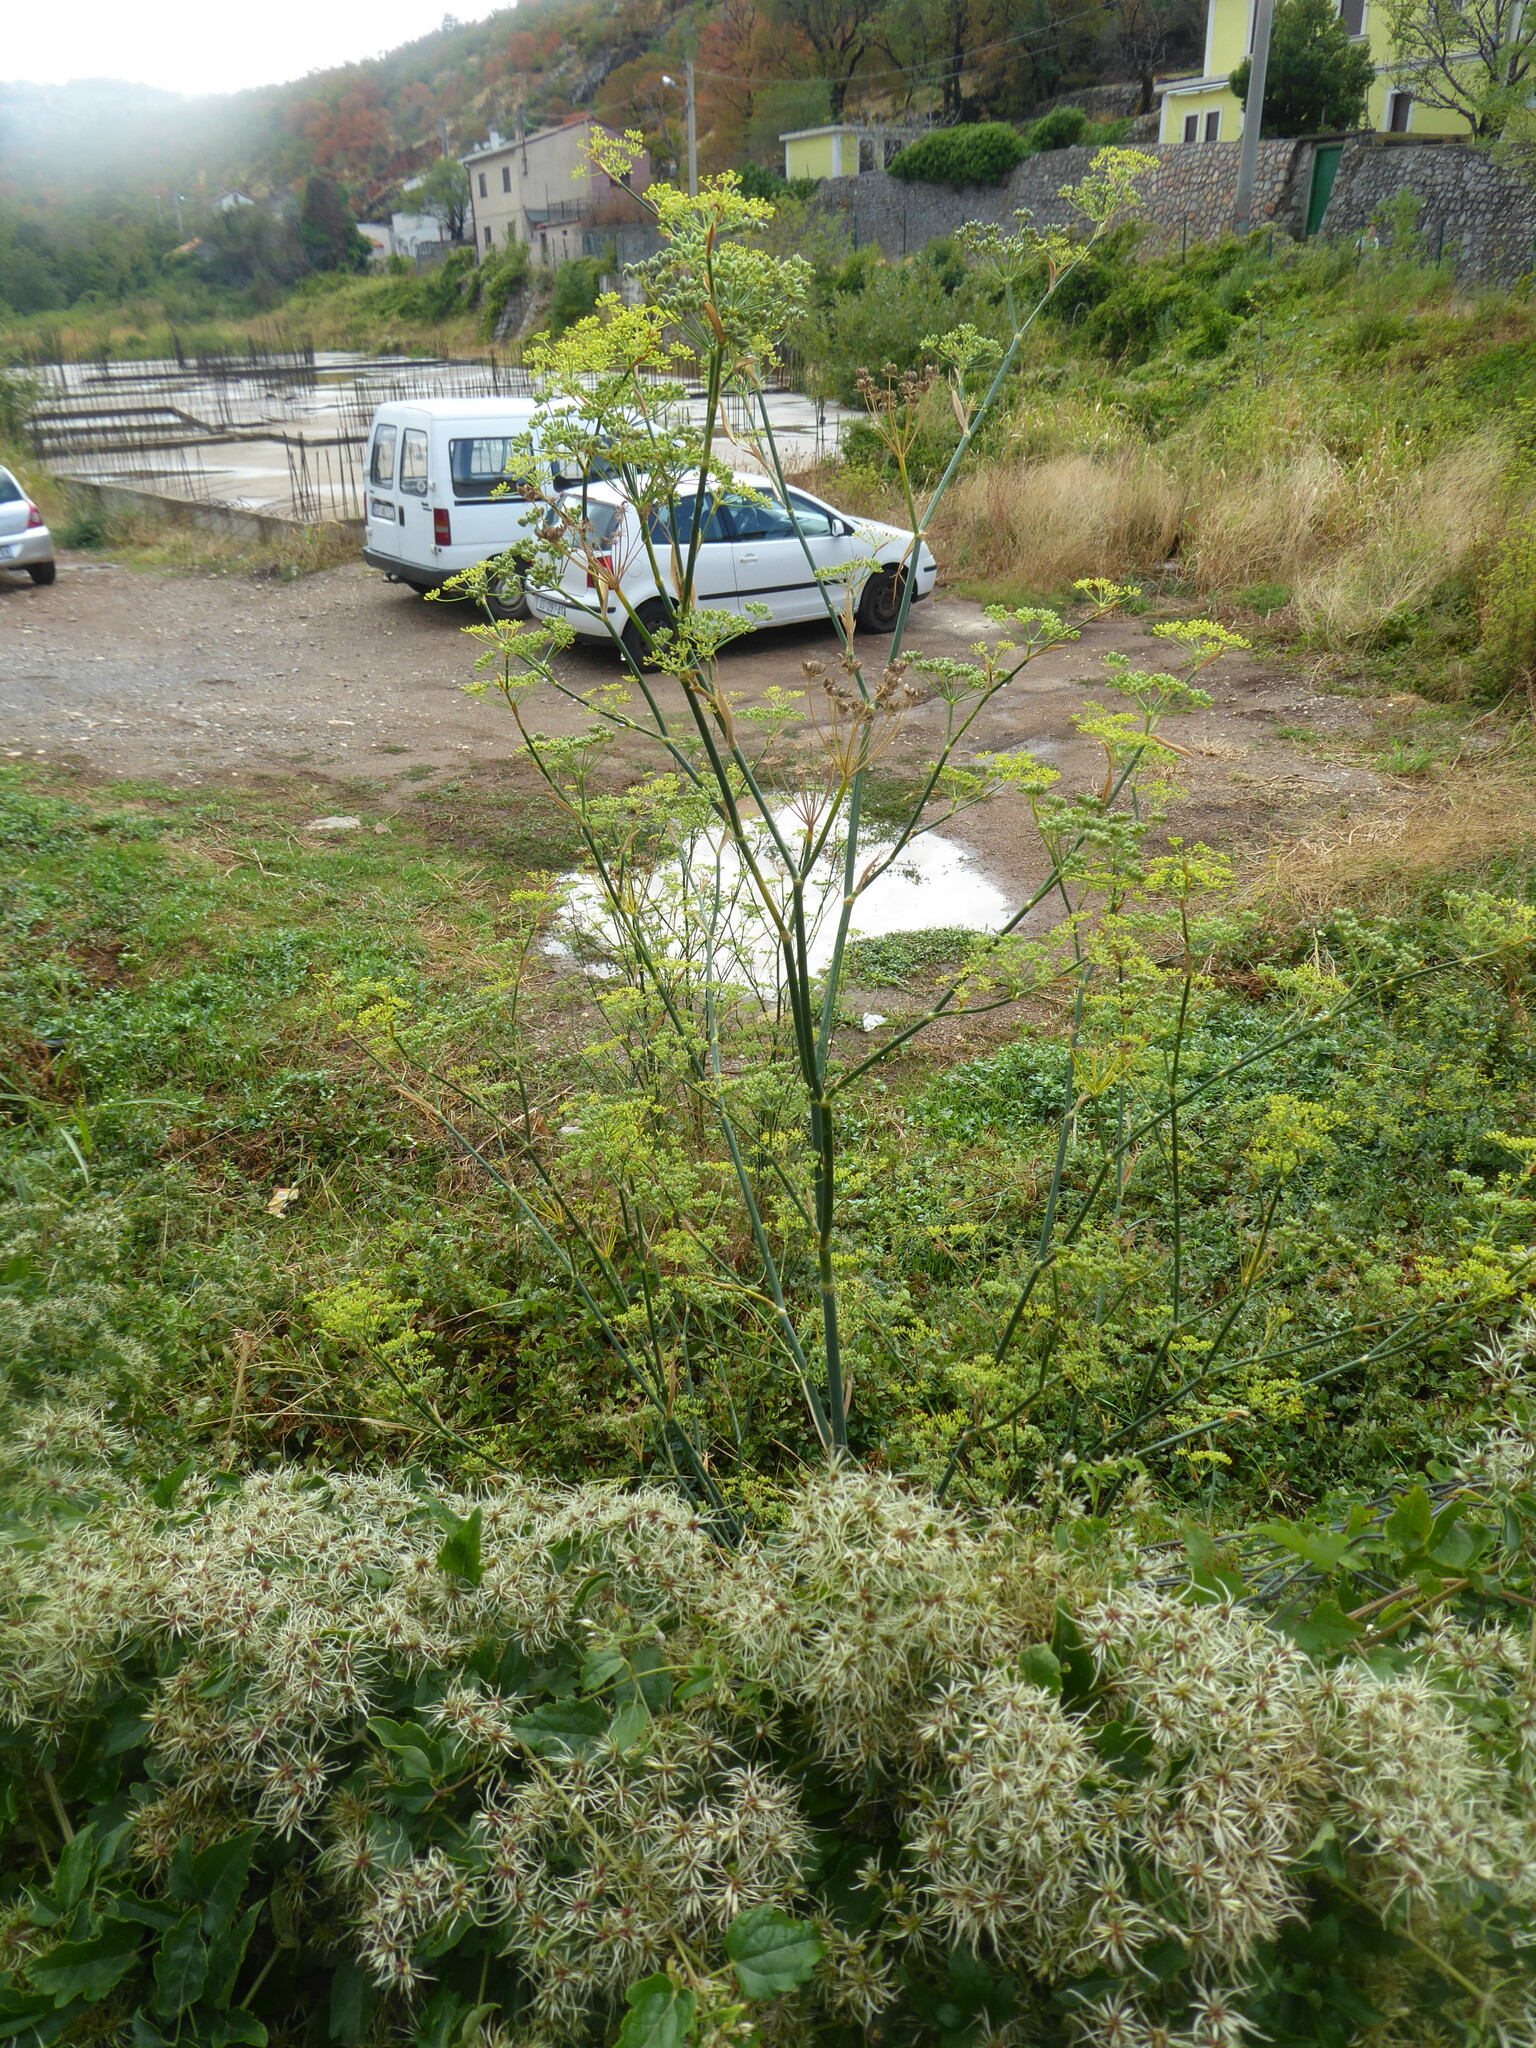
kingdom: Plantae
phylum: Tracheophyta
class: Magnoliopsida
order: Apiales
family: Apiaceae
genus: Foeniculum
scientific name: Foeniculum vulgare
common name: Fennel
